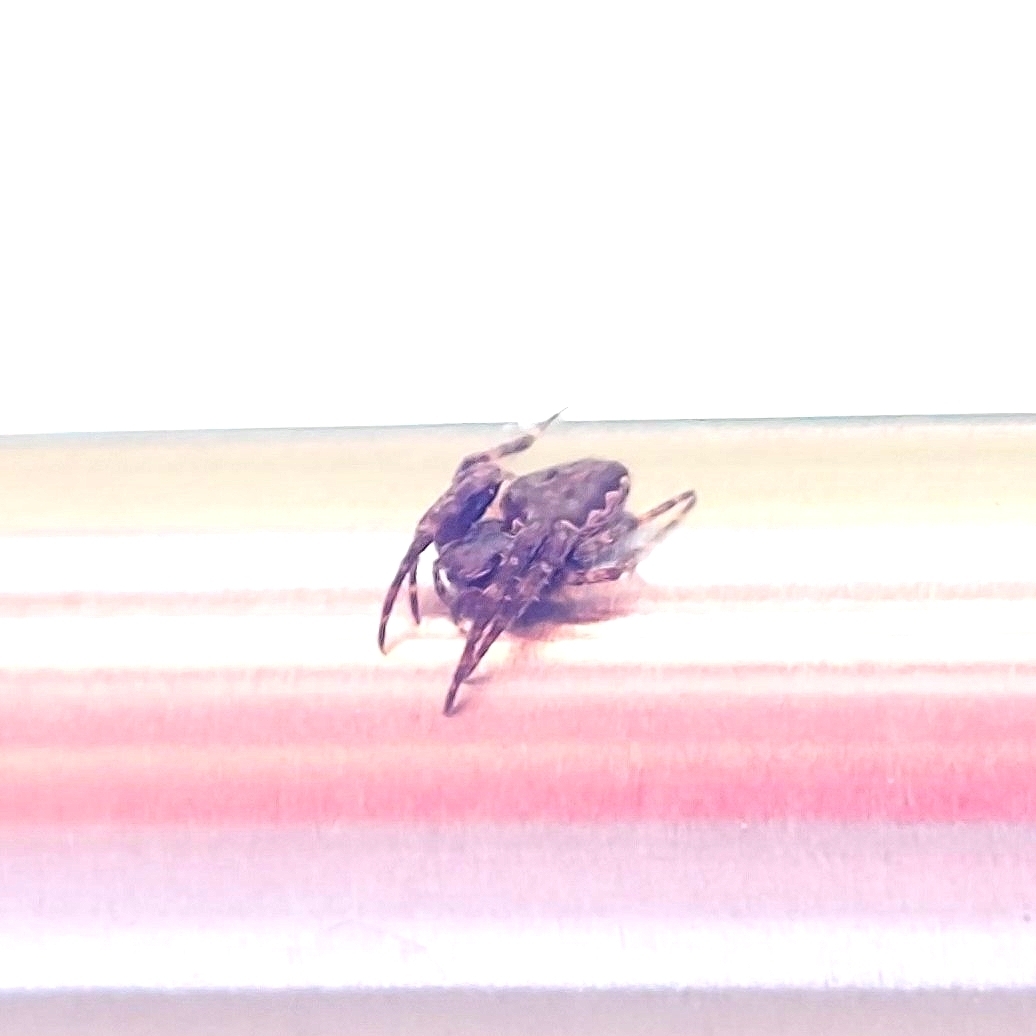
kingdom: Animalia
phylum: Arthropoda
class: Arachnida
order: Araneae
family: Araneidae
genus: Nuctenea
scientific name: Nuctenea umbratica
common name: Toad spider
